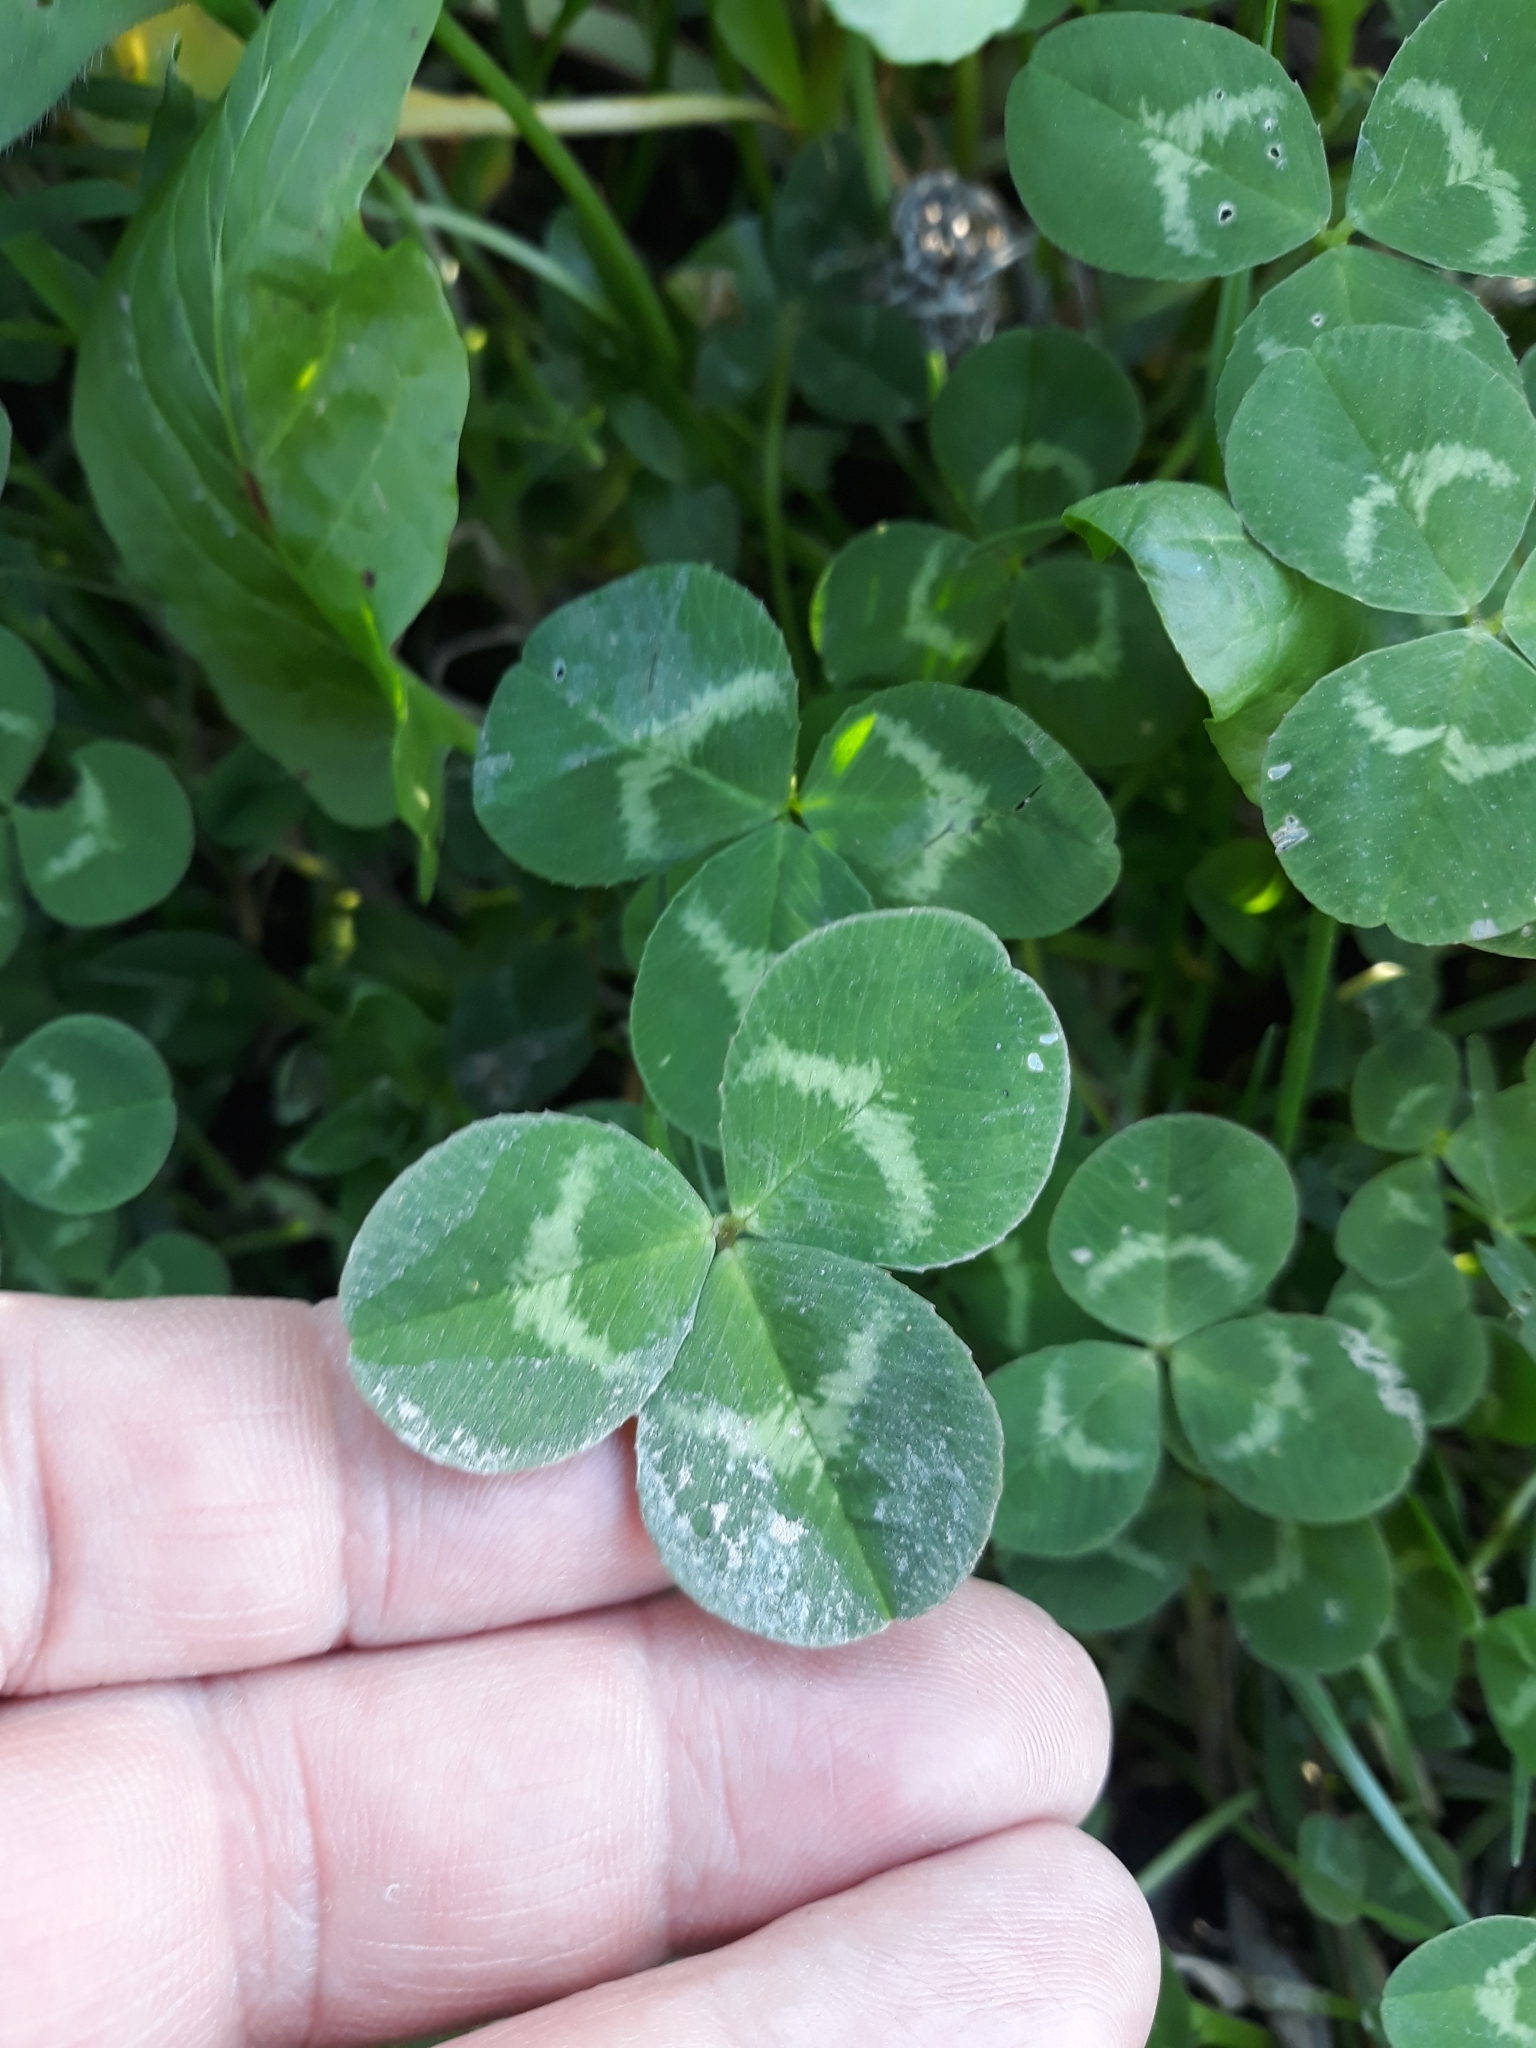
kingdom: Plantae
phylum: Tracheophyta
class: Magnoliopsida
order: Fabales
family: Fabaceae
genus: Trifolium
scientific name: Trifolium repens
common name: White clover
